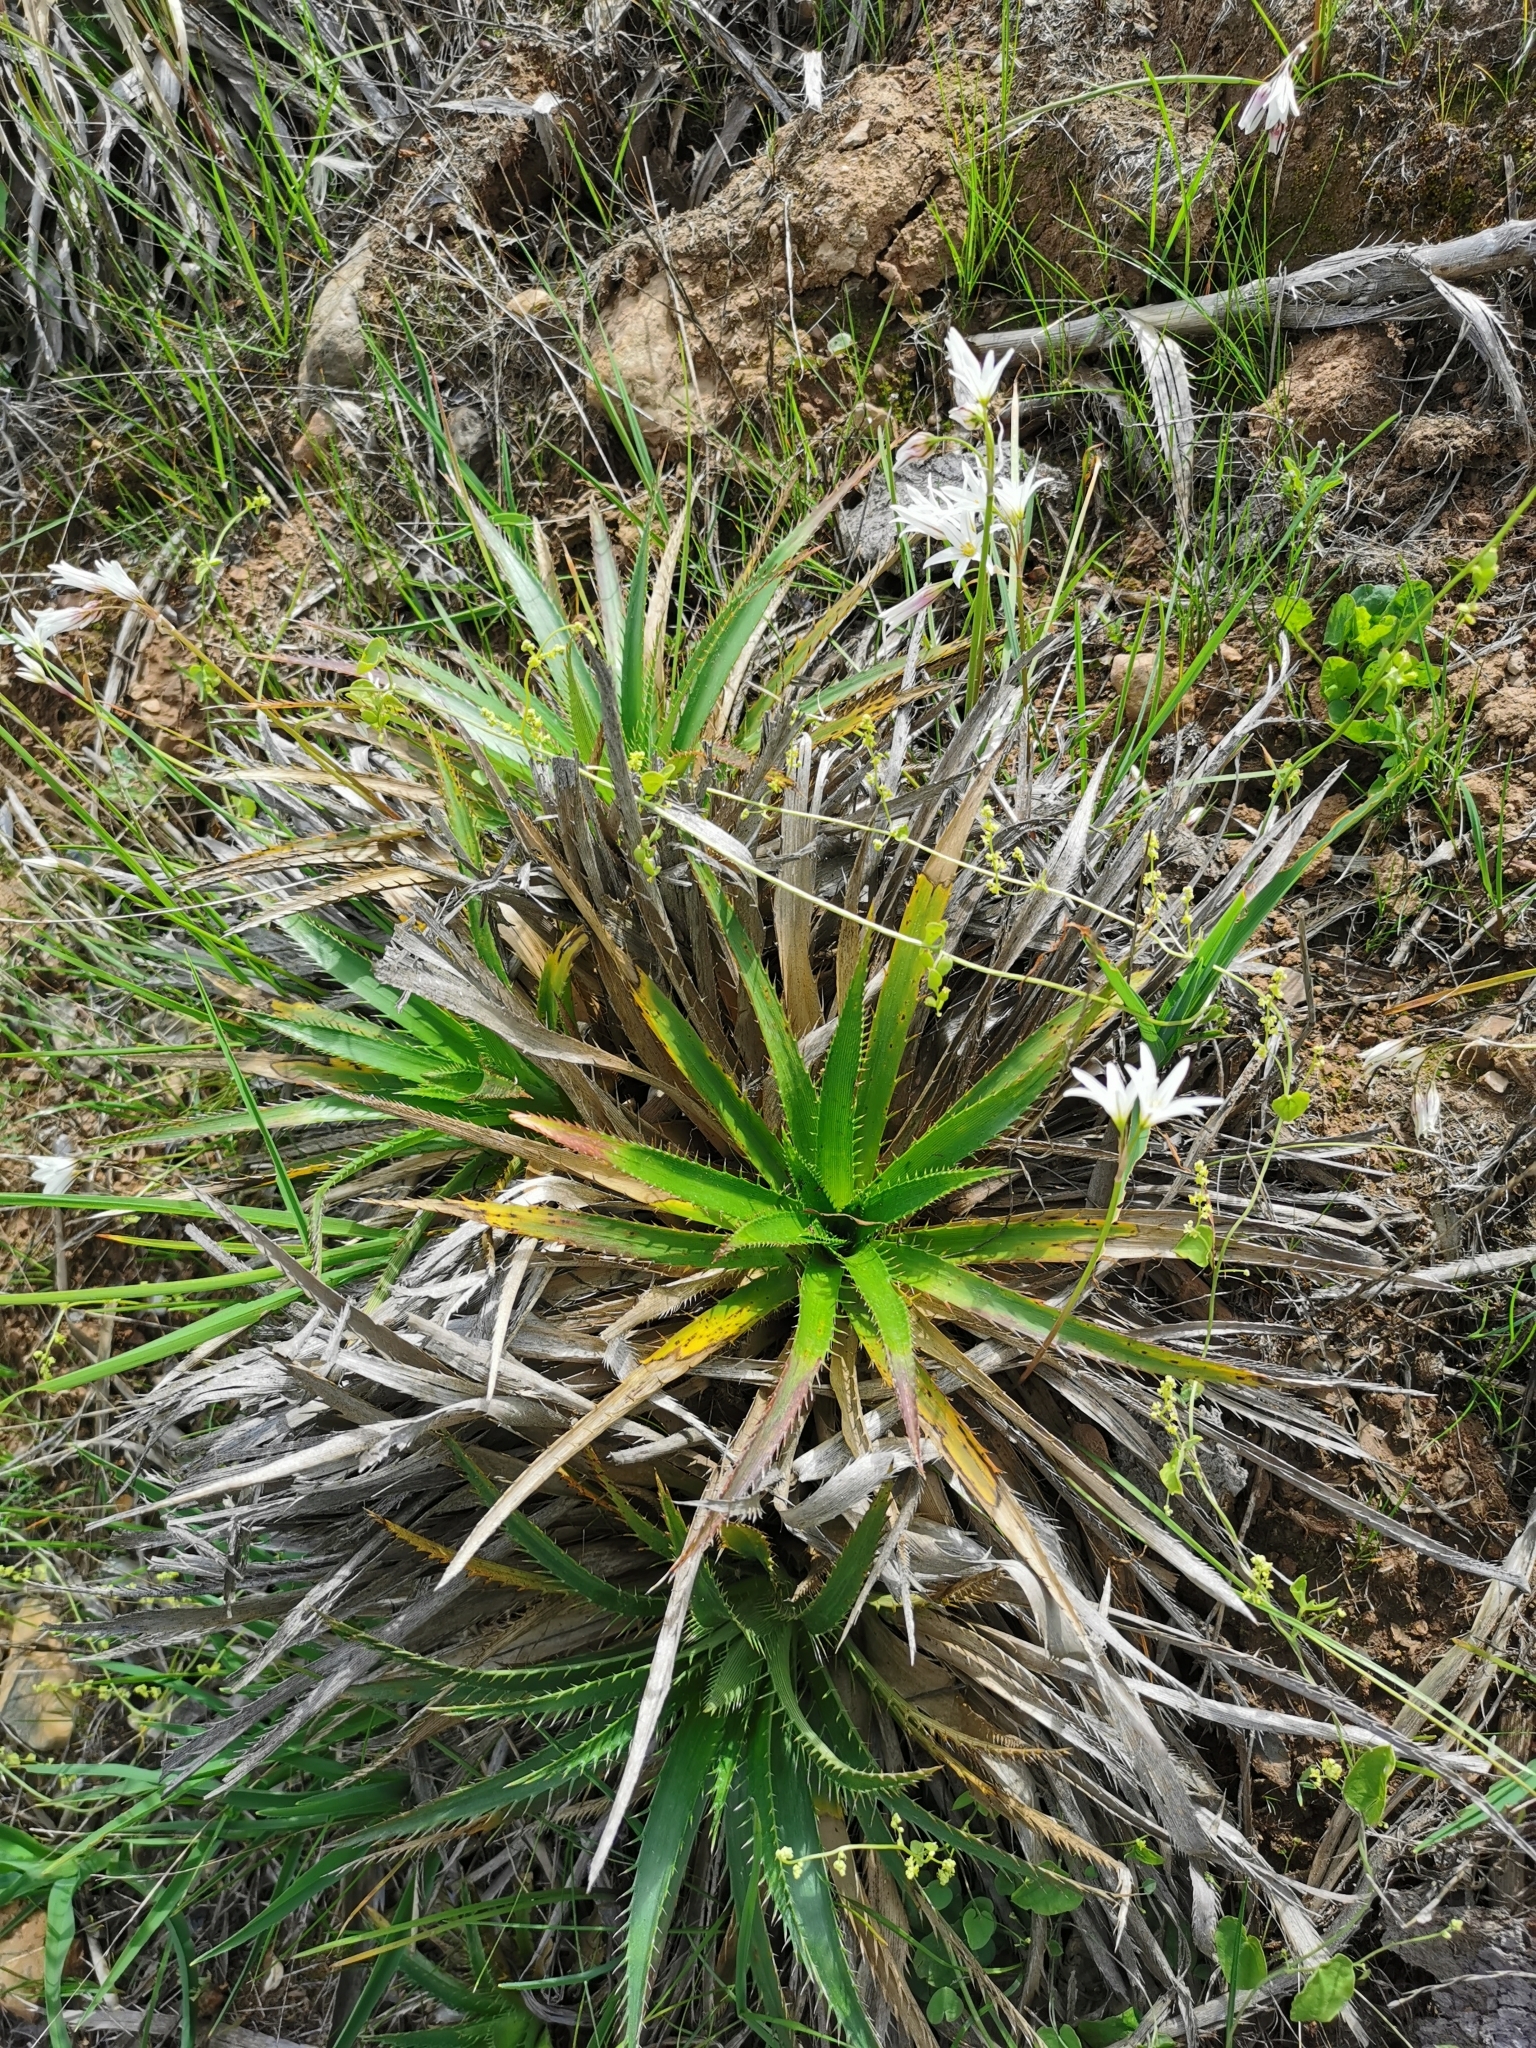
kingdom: Plantae
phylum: Tracheophyta
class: Magnoliopsida
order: Apiales
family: Apiaceae
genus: Eryngium
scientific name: Eryngium humboldtii
